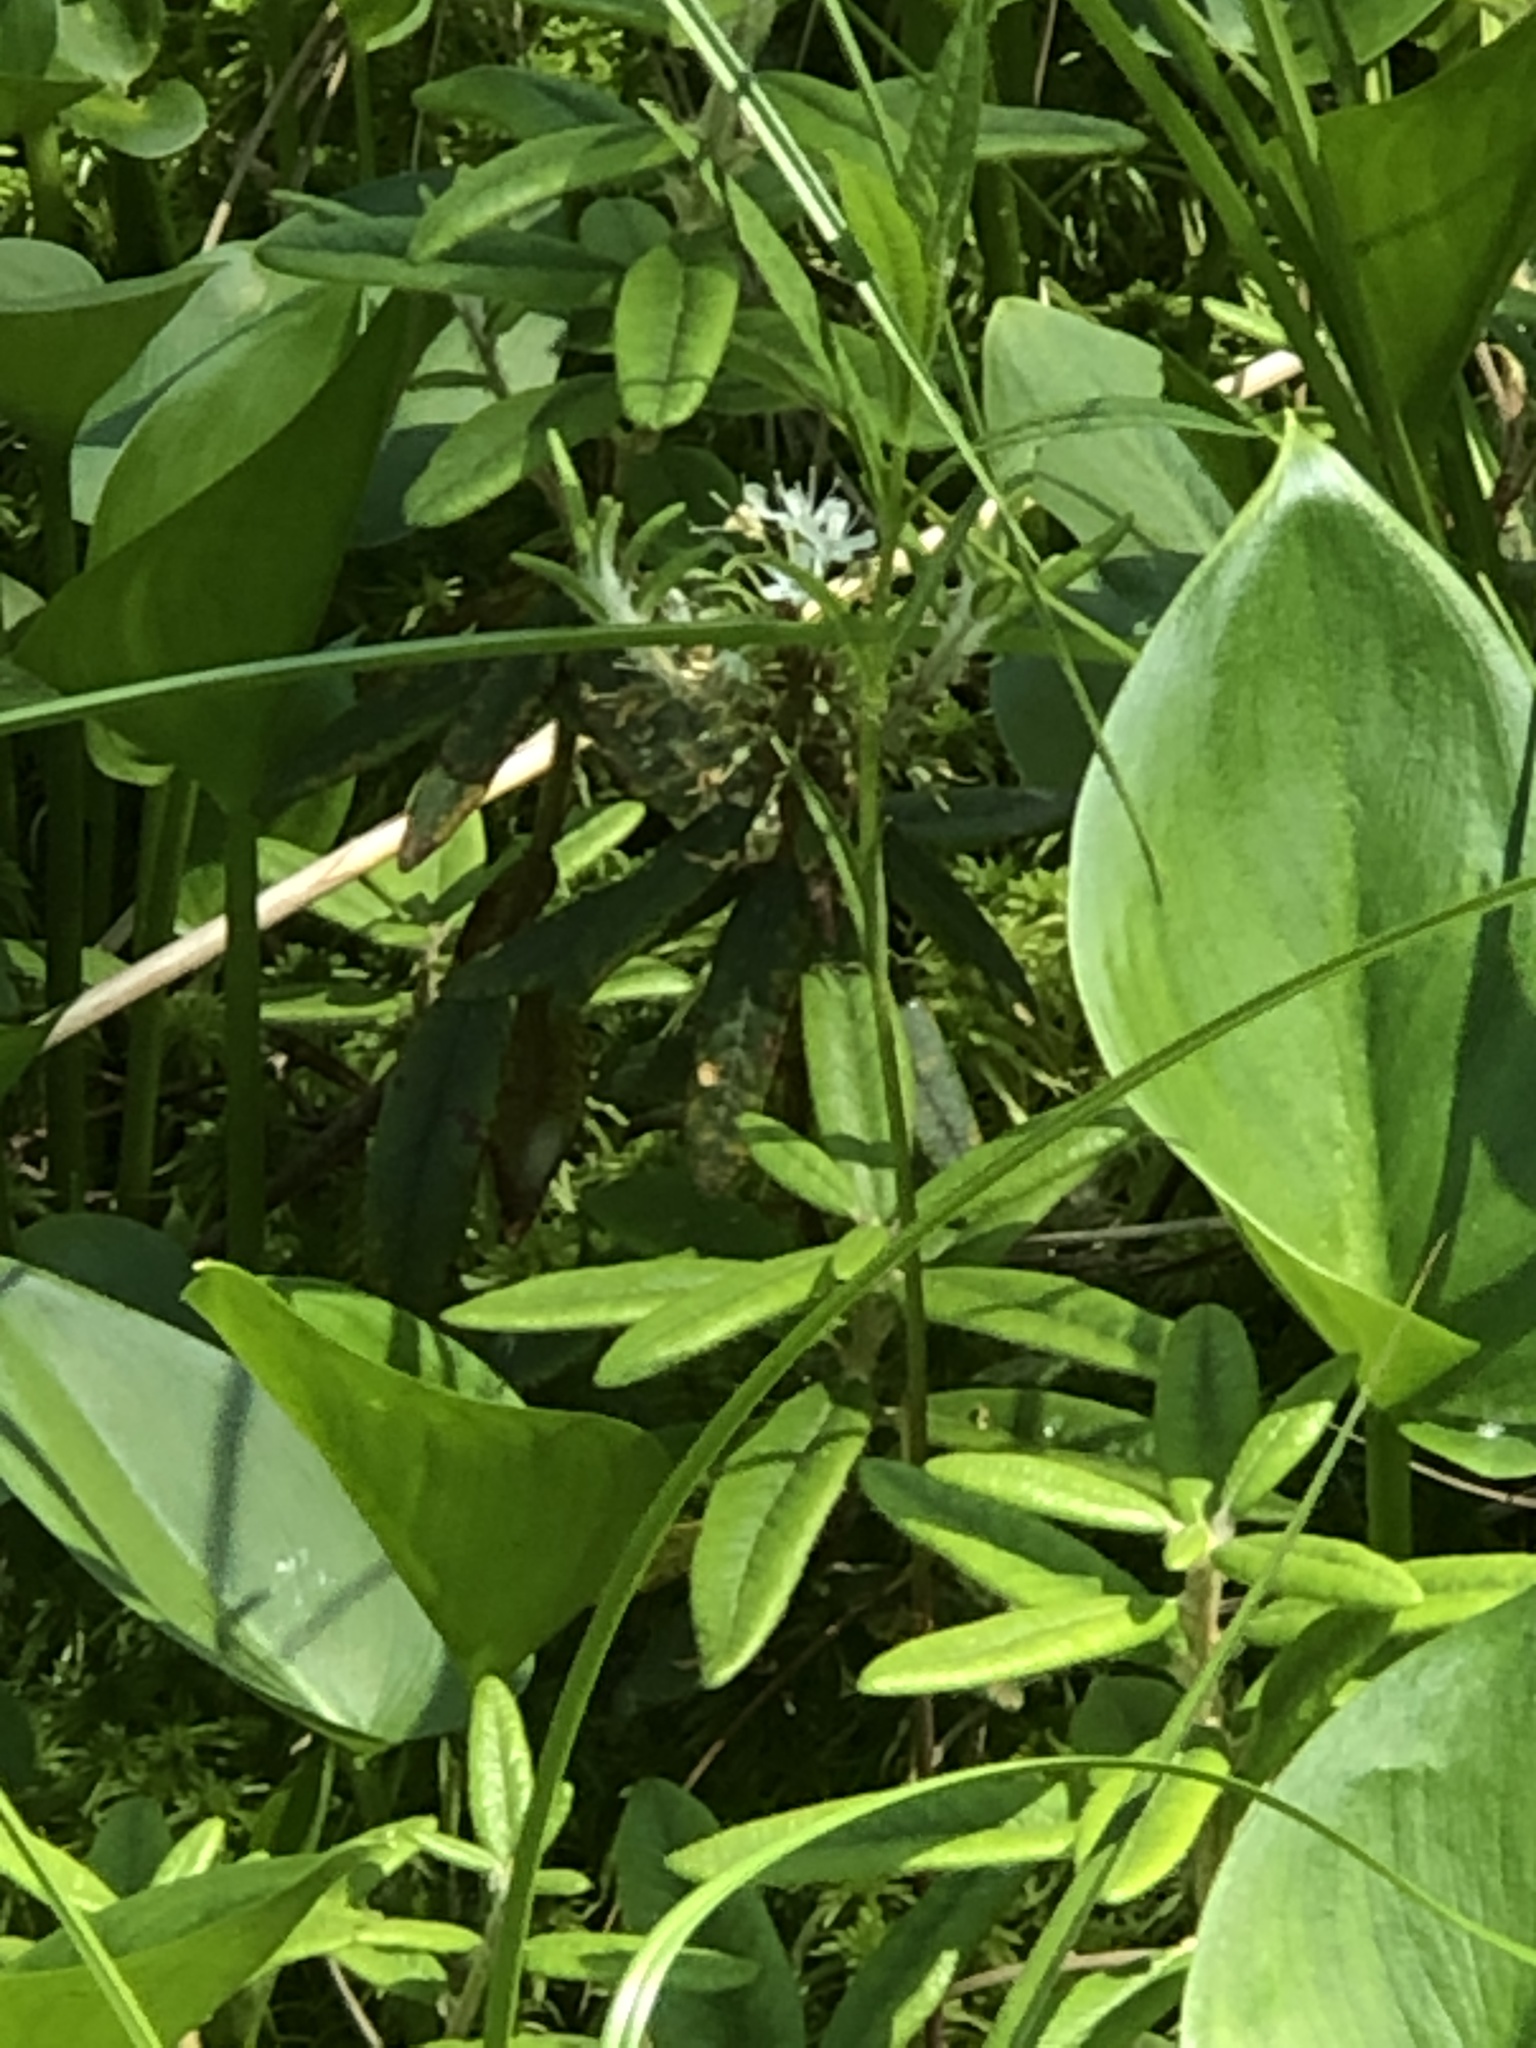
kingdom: Plantae
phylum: Tracheophyta
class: Magnoliopsida
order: Ericales
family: Ericaceae
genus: Rhododendron
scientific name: Rhododendron groenlandicum
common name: Bog labrador tea
